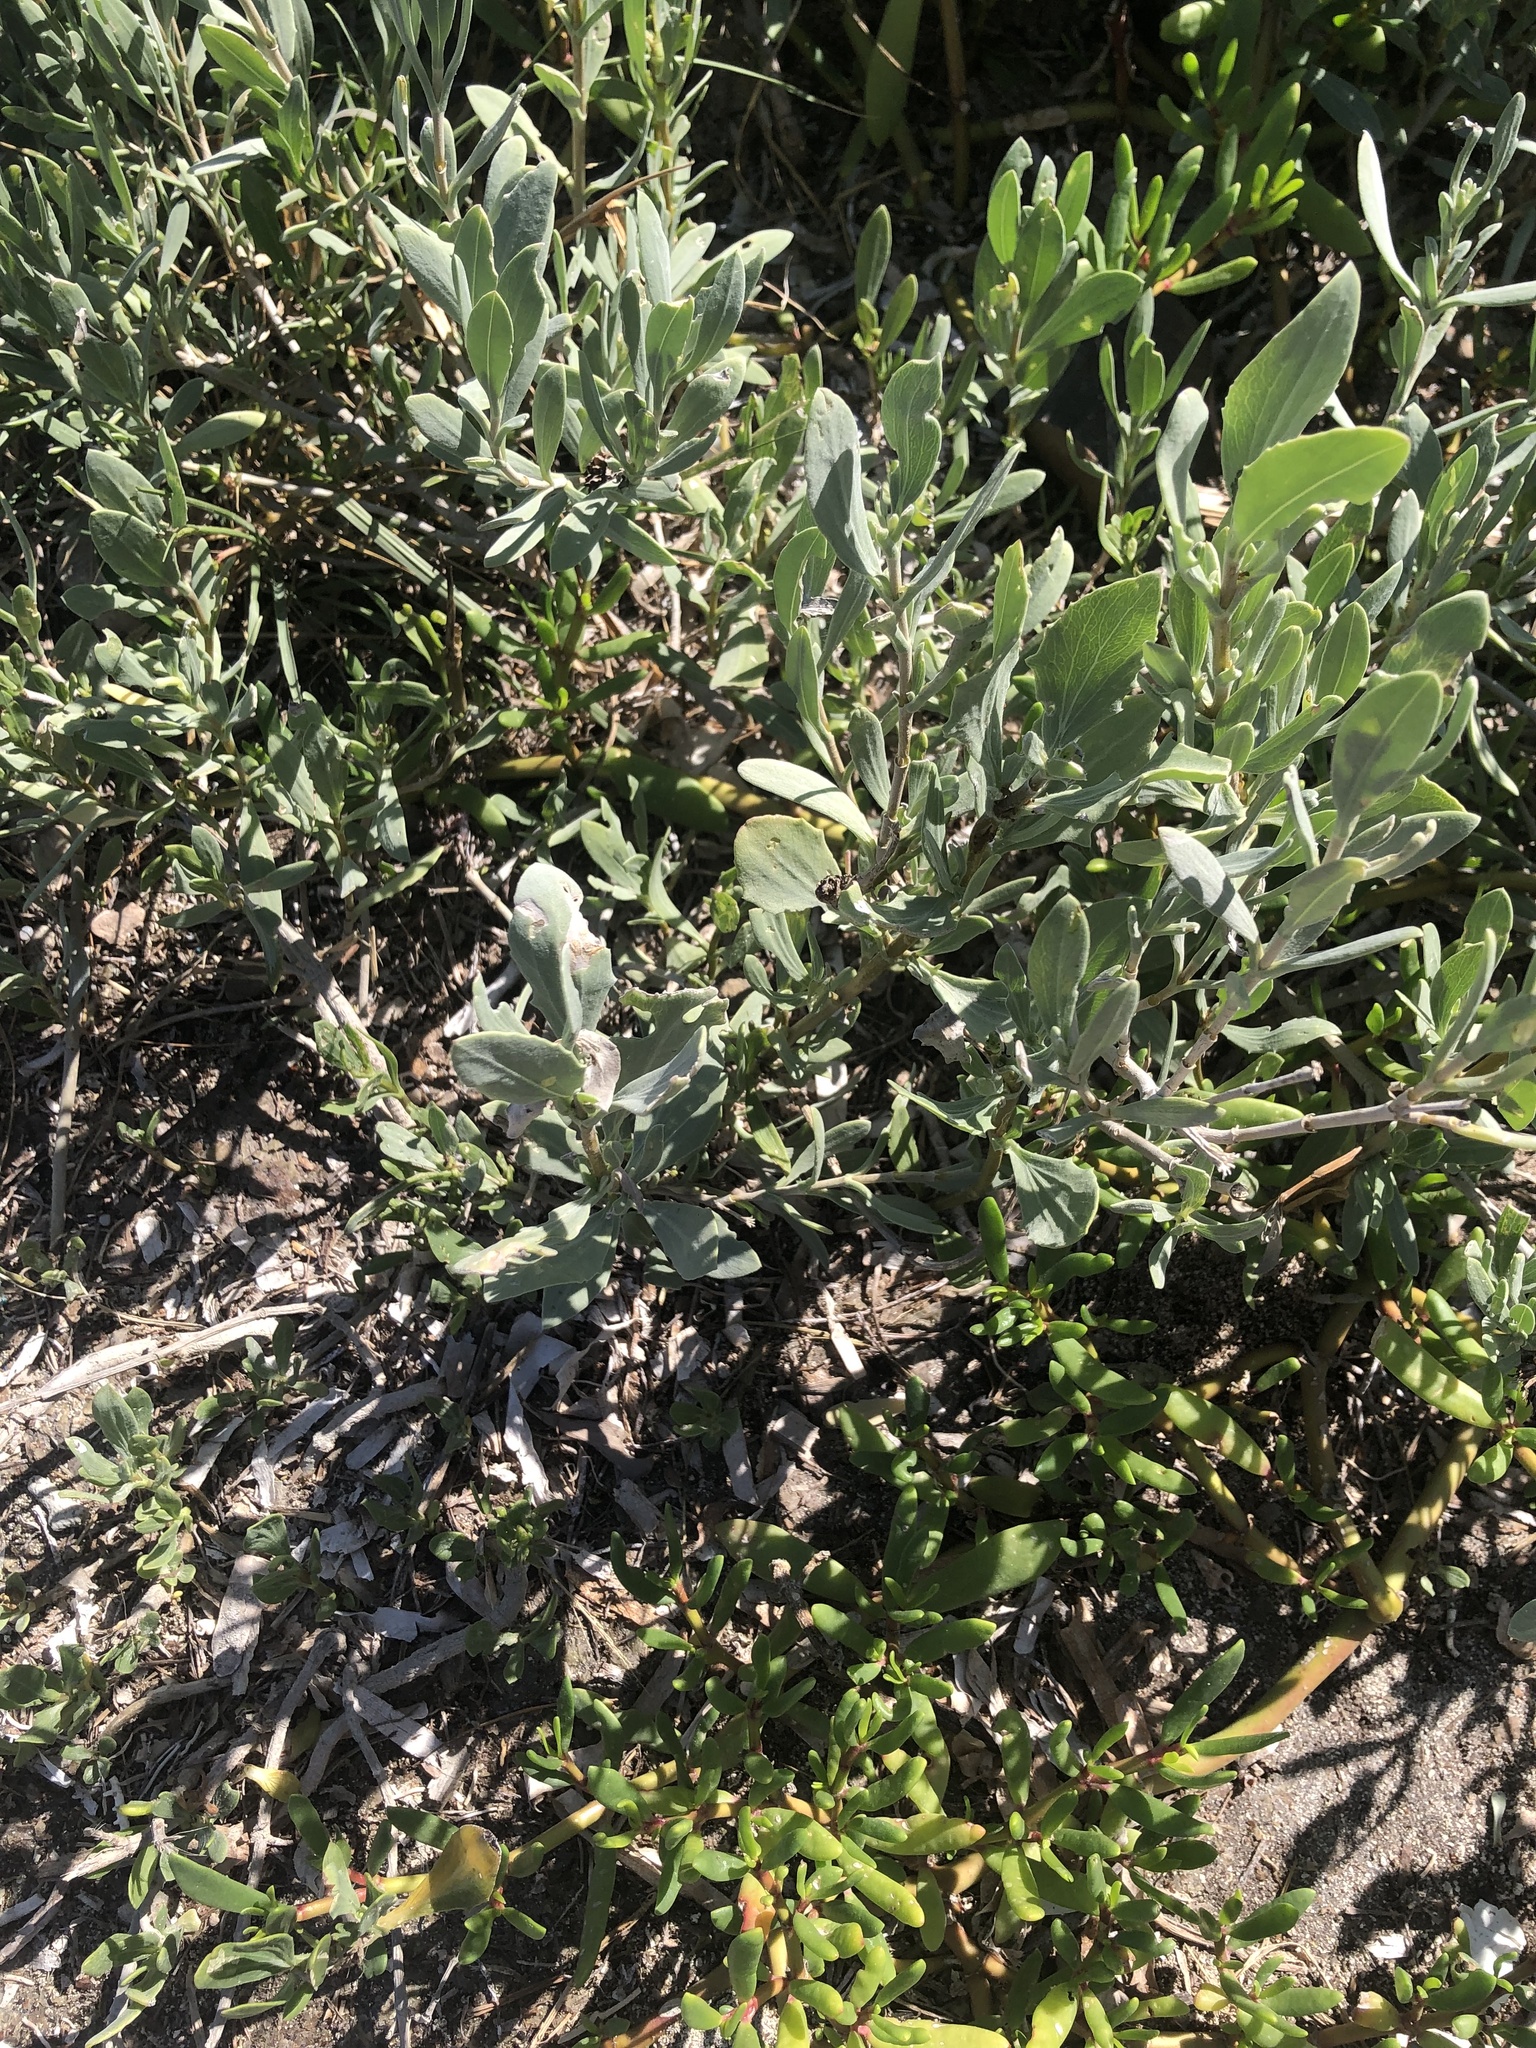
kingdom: Plantae
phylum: Tracheophyta
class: Magnoliopsida
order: Asterales
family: Asteraceae
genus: Borrichia
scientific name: Borrichia frutescens
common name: Sea oxeye
